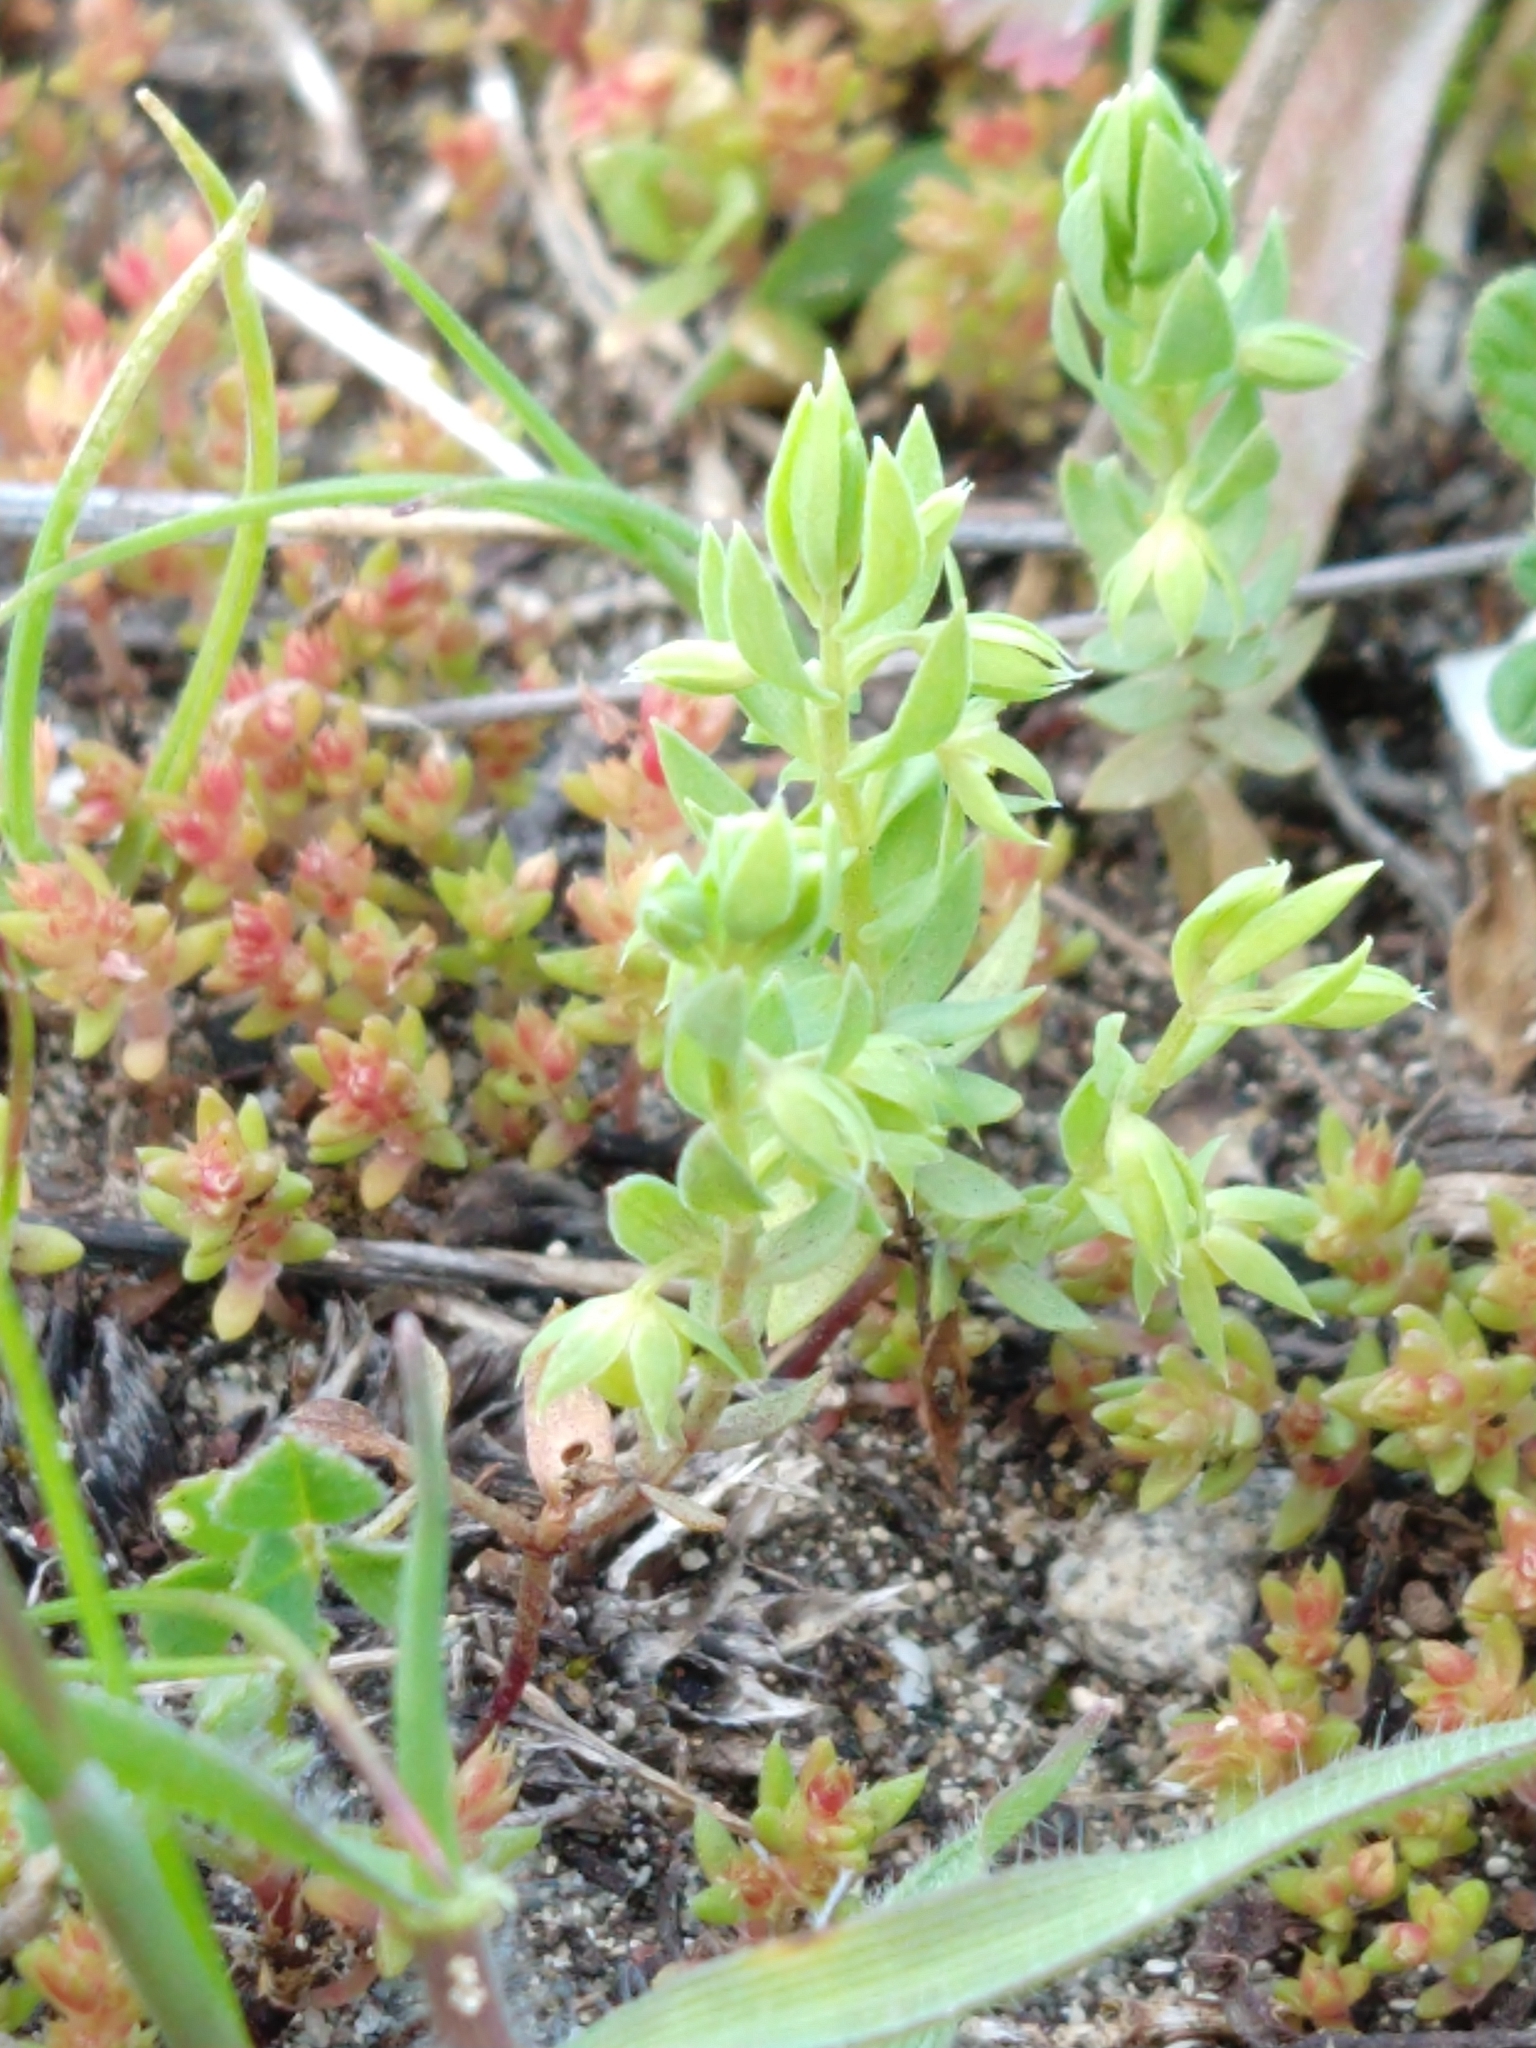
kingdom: Plantae
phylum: Tracheophyta
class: Magnoliopsida
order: Ericales
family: Primulaceae
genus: Lysimachia
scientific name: Lysimachia linum-stellatum
